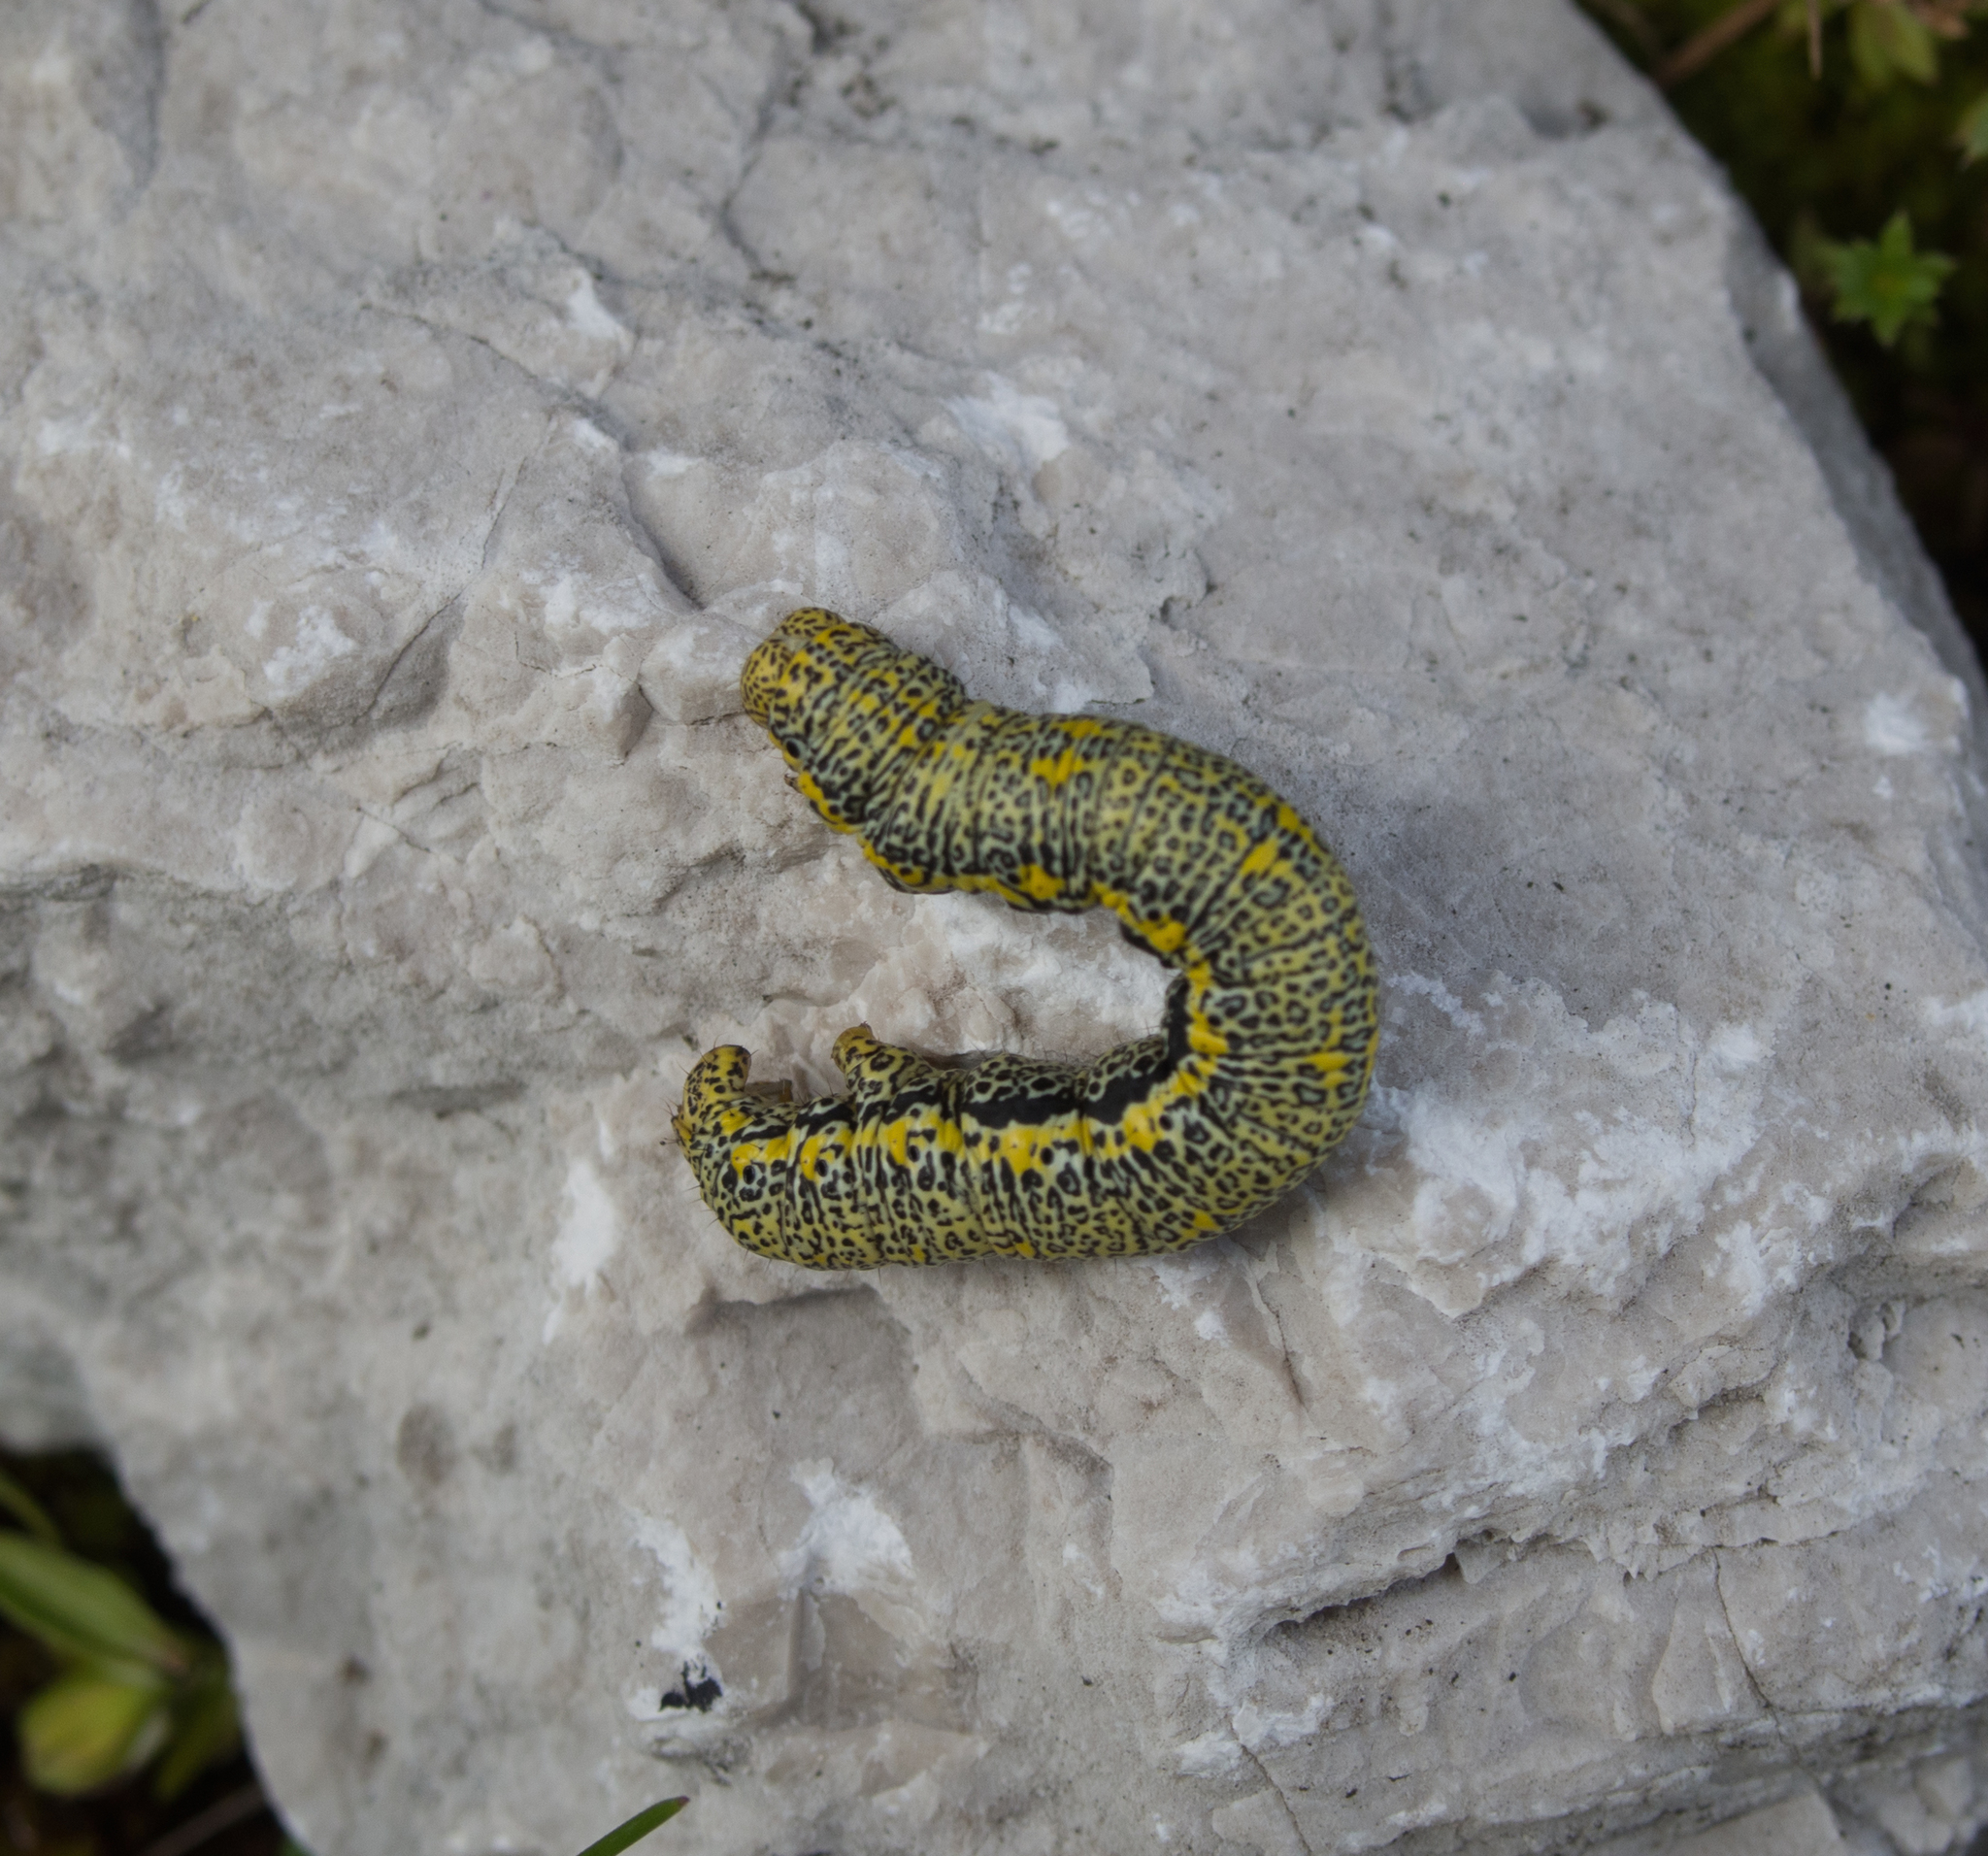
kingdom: Animalia
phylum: Arthropoda
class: Insecta
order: Lepidoptera
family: Geometridae
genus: Lycia
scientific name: Lycia alpina
